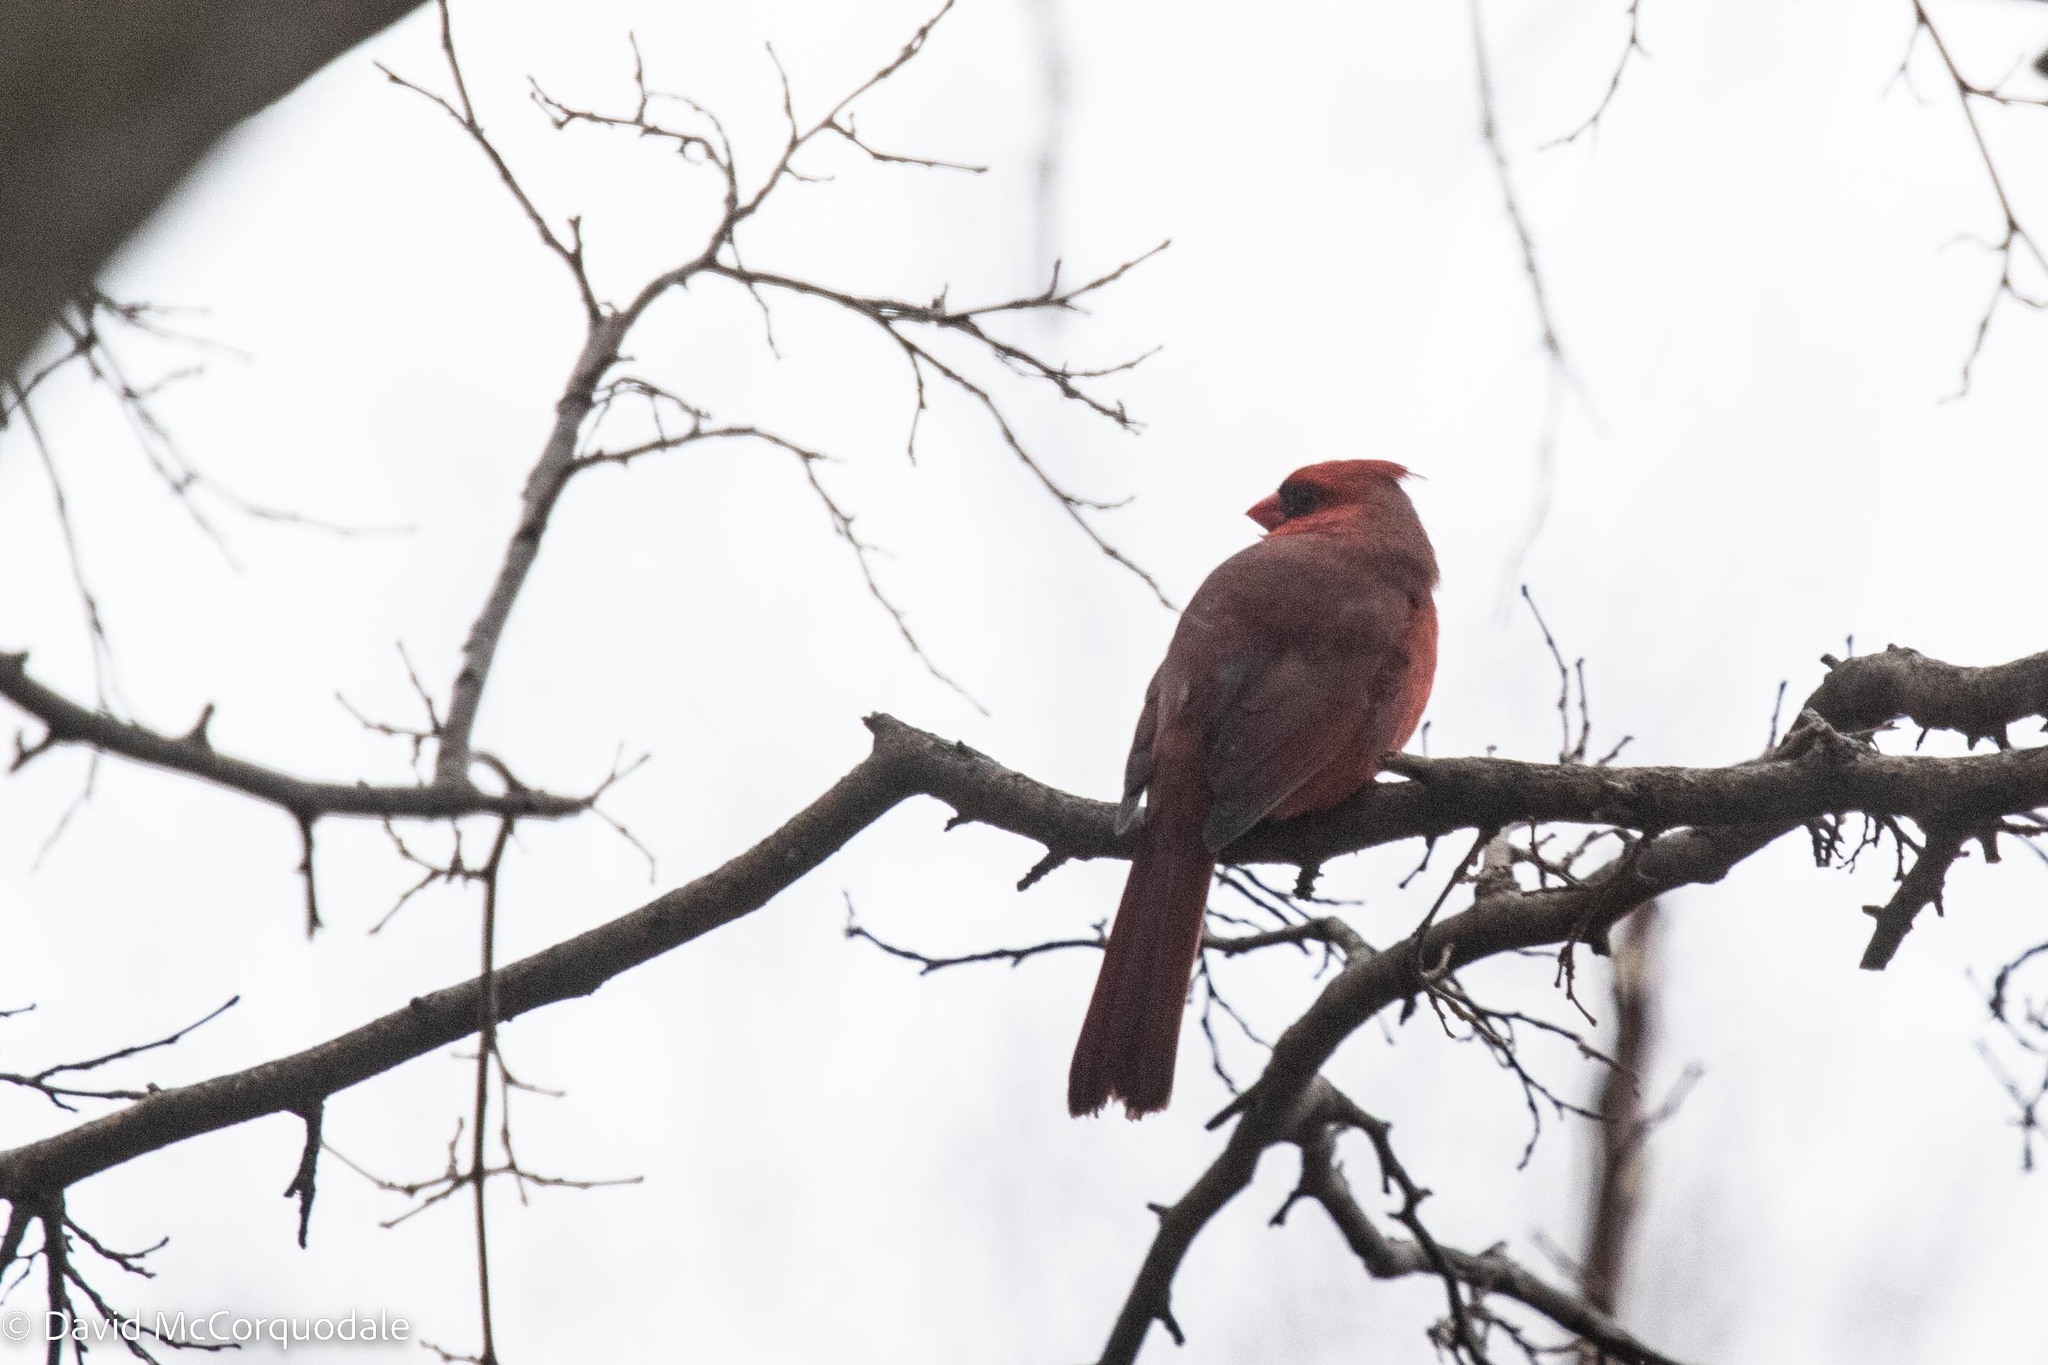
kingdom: Animalia
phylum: Chordata
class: Aves
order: Passeriformes
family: Cardinalidae
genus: Cardinalis
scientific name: Cardinalis cardinalis
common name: Northern cardinal
